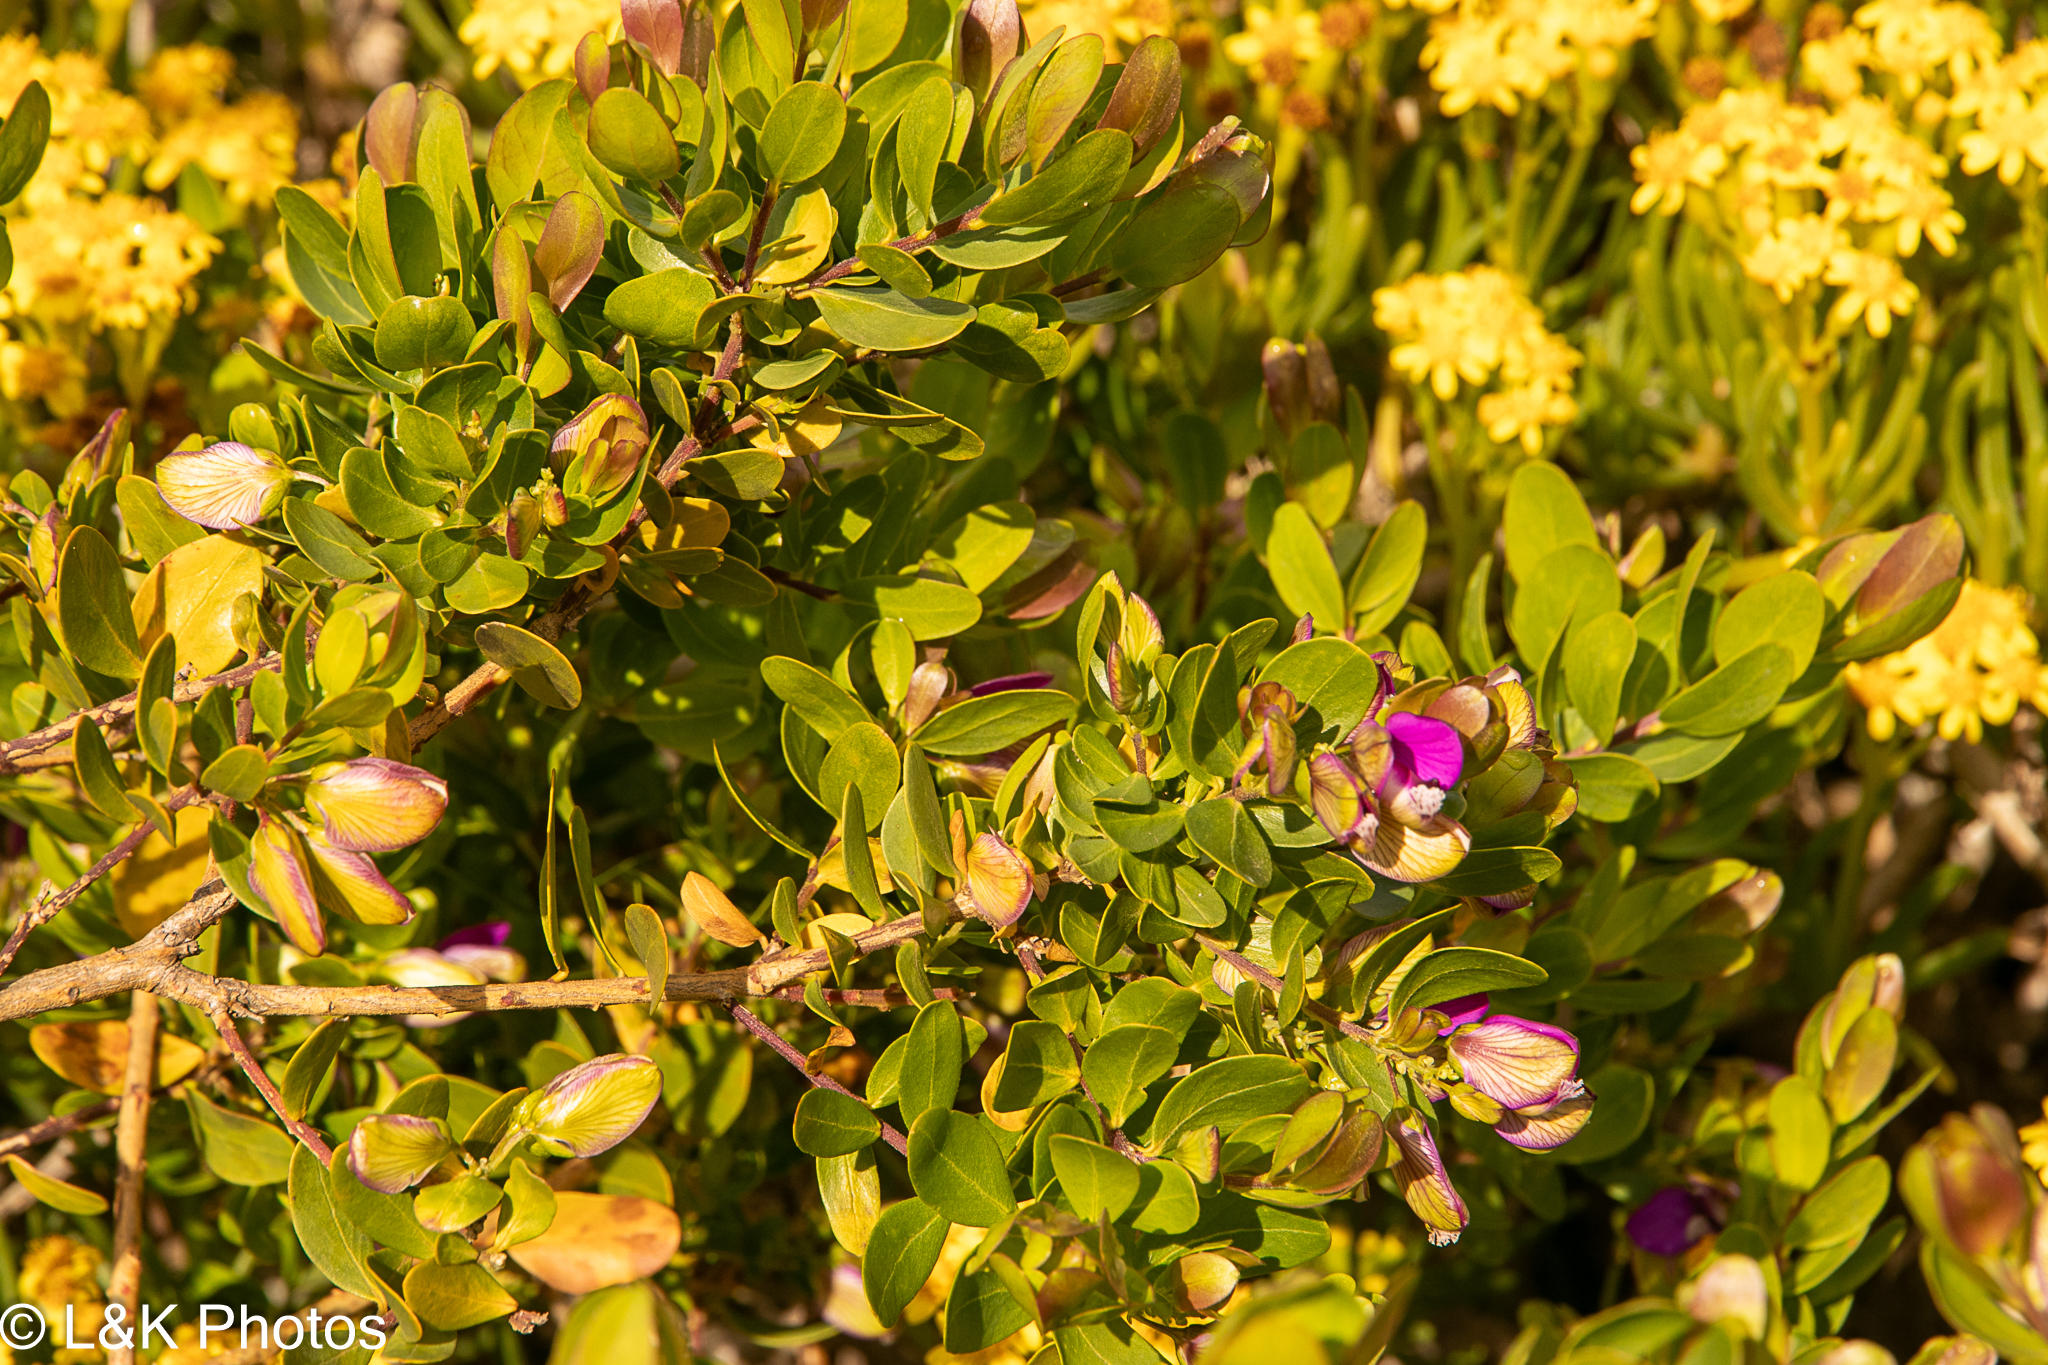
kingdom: Plantae
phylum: Tracheophyta
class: Magnoliopsida
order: Fabales
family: Polygalaceae
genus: Polygala
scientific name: Polygala myrtifolia
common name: Myrtle-leaf milkwort
